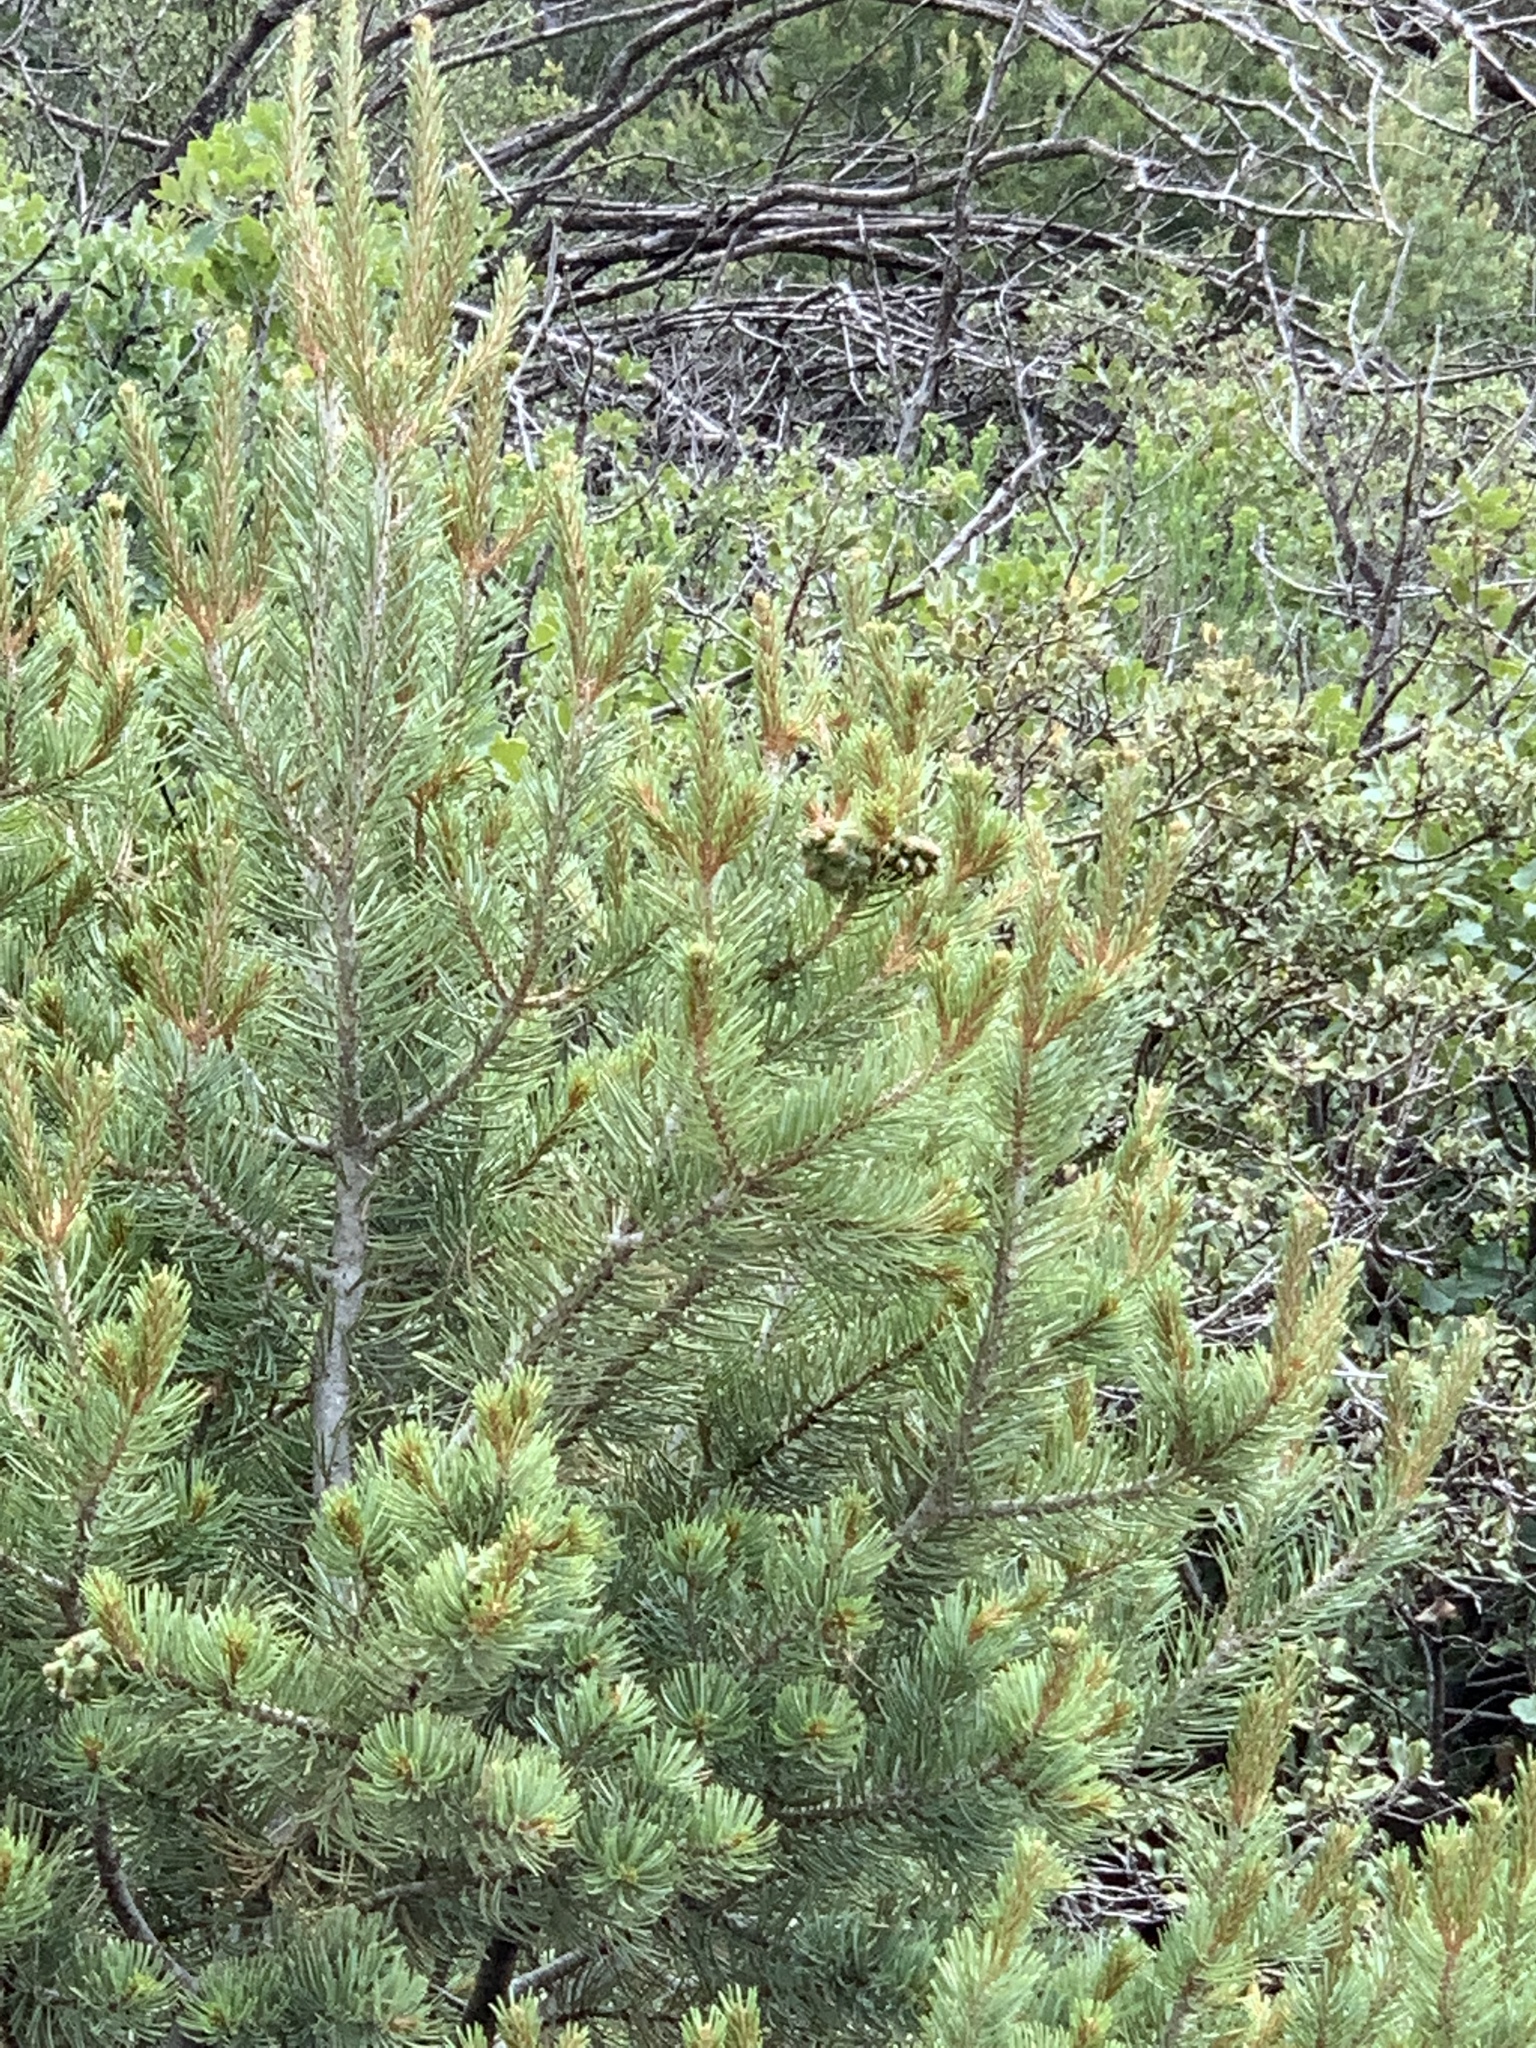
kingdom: Plantae
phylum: Tracheophyta
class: Pinopsida
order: Pinales
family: Pinaceae
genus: Pinus
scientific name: Pinus edulis
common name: Colorado pinyon
